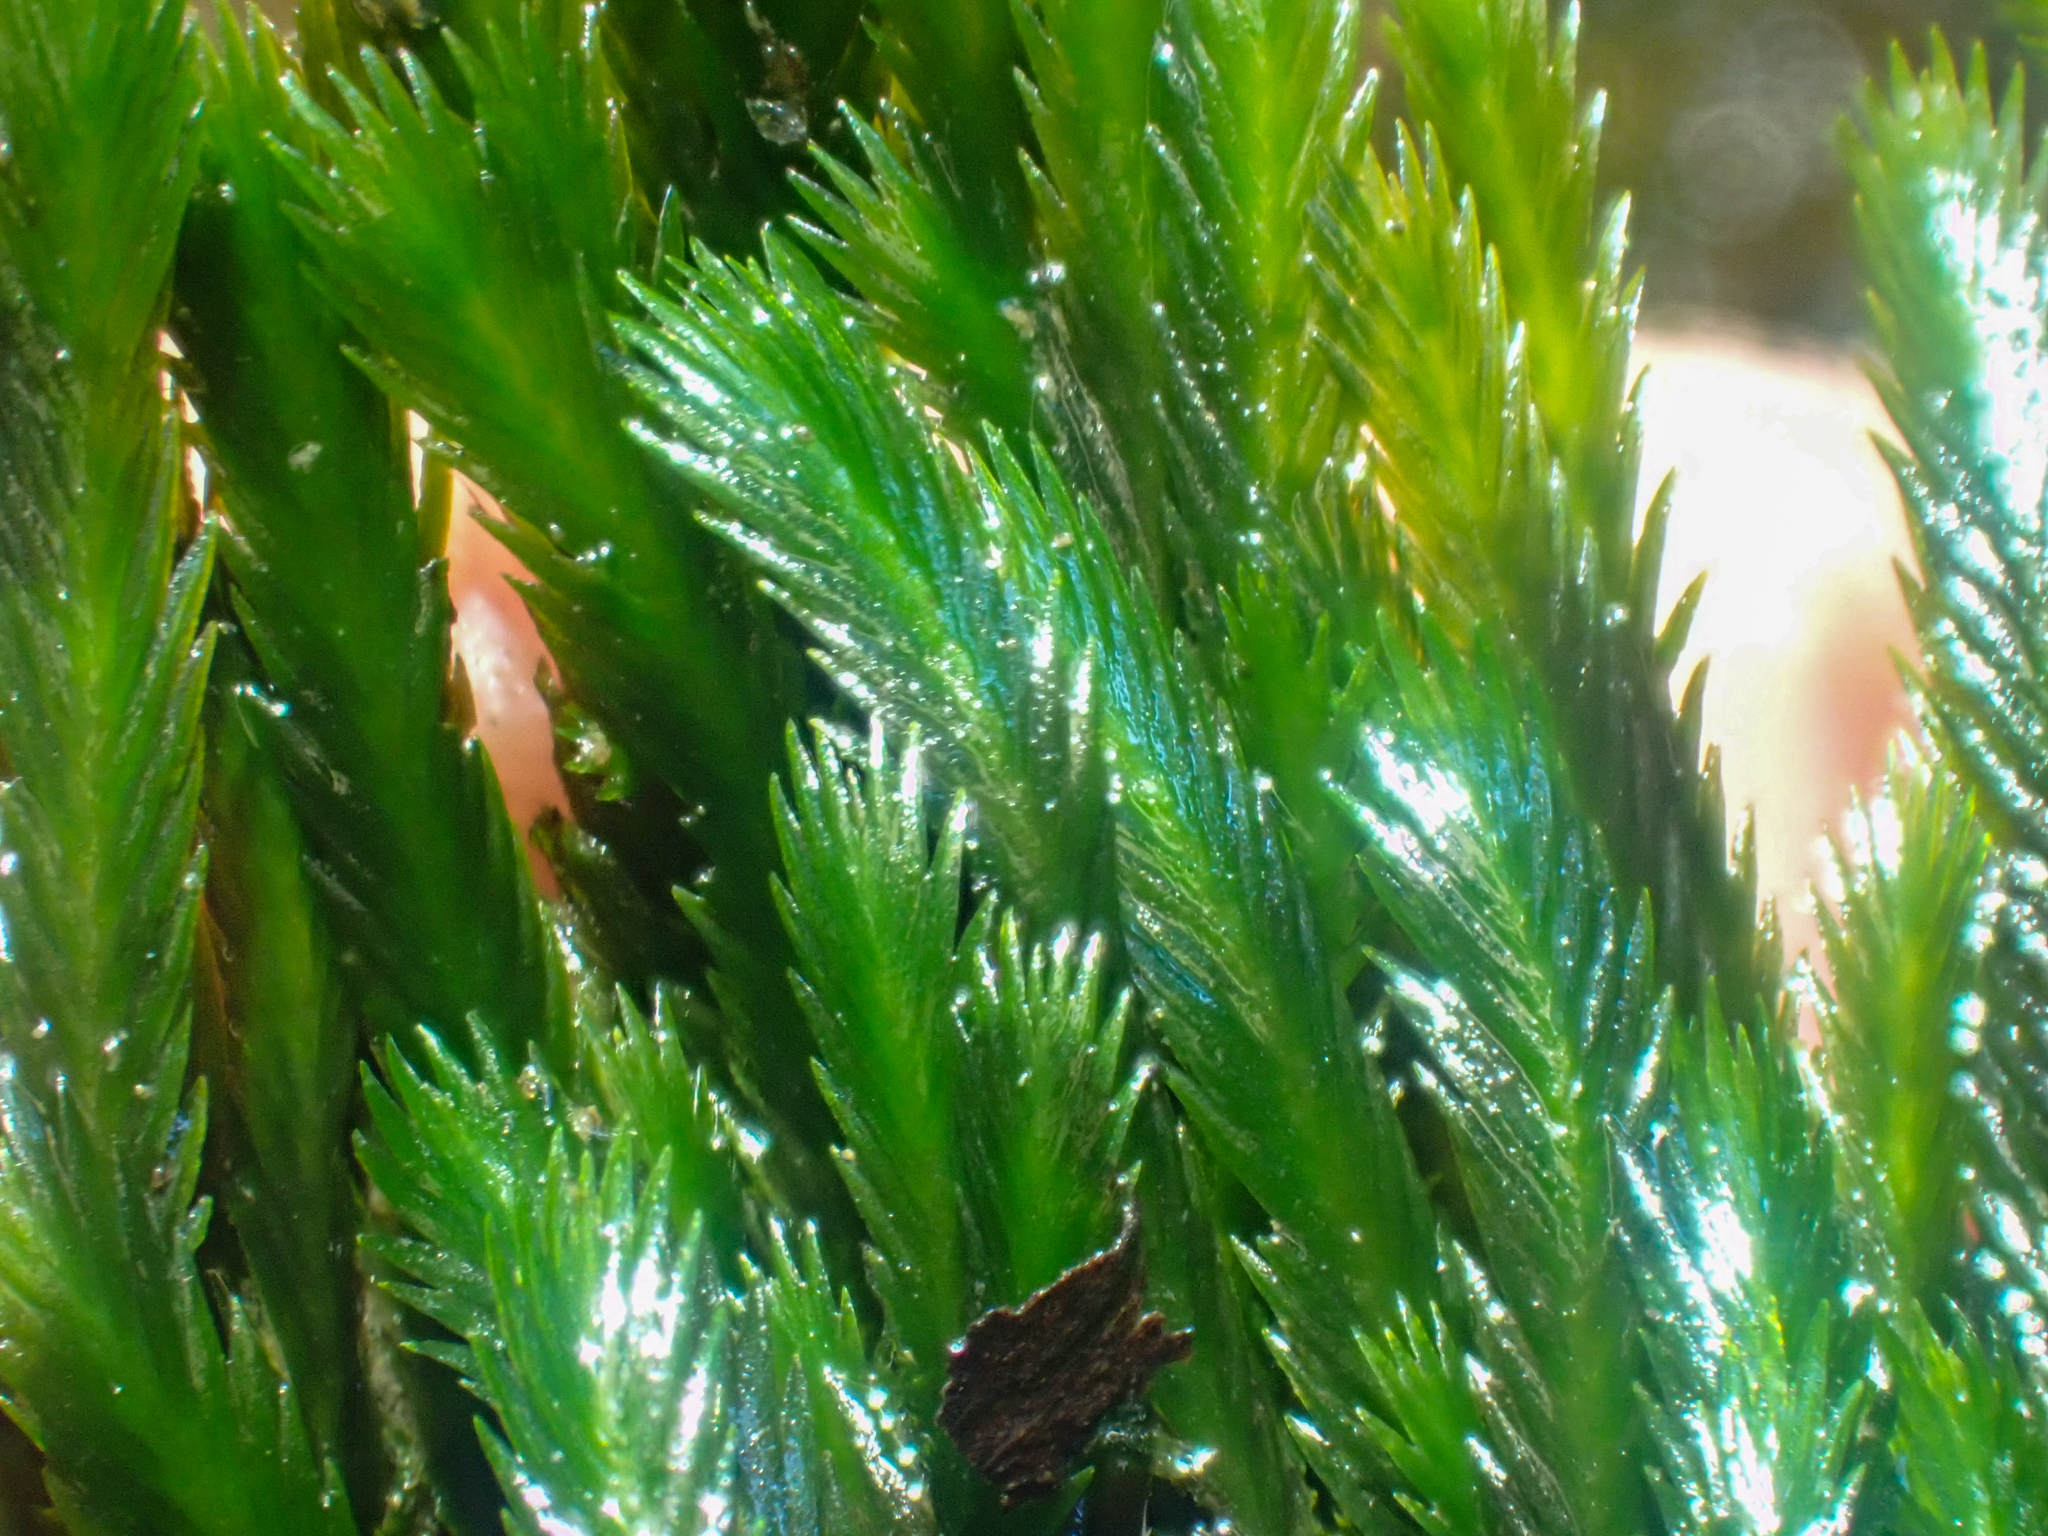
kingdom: Plantae
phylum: Bryophyta
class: Bryopsida
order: Dicranales
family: Fissidentaceae
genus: Fissidens
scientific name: Fissidens grandifrons
